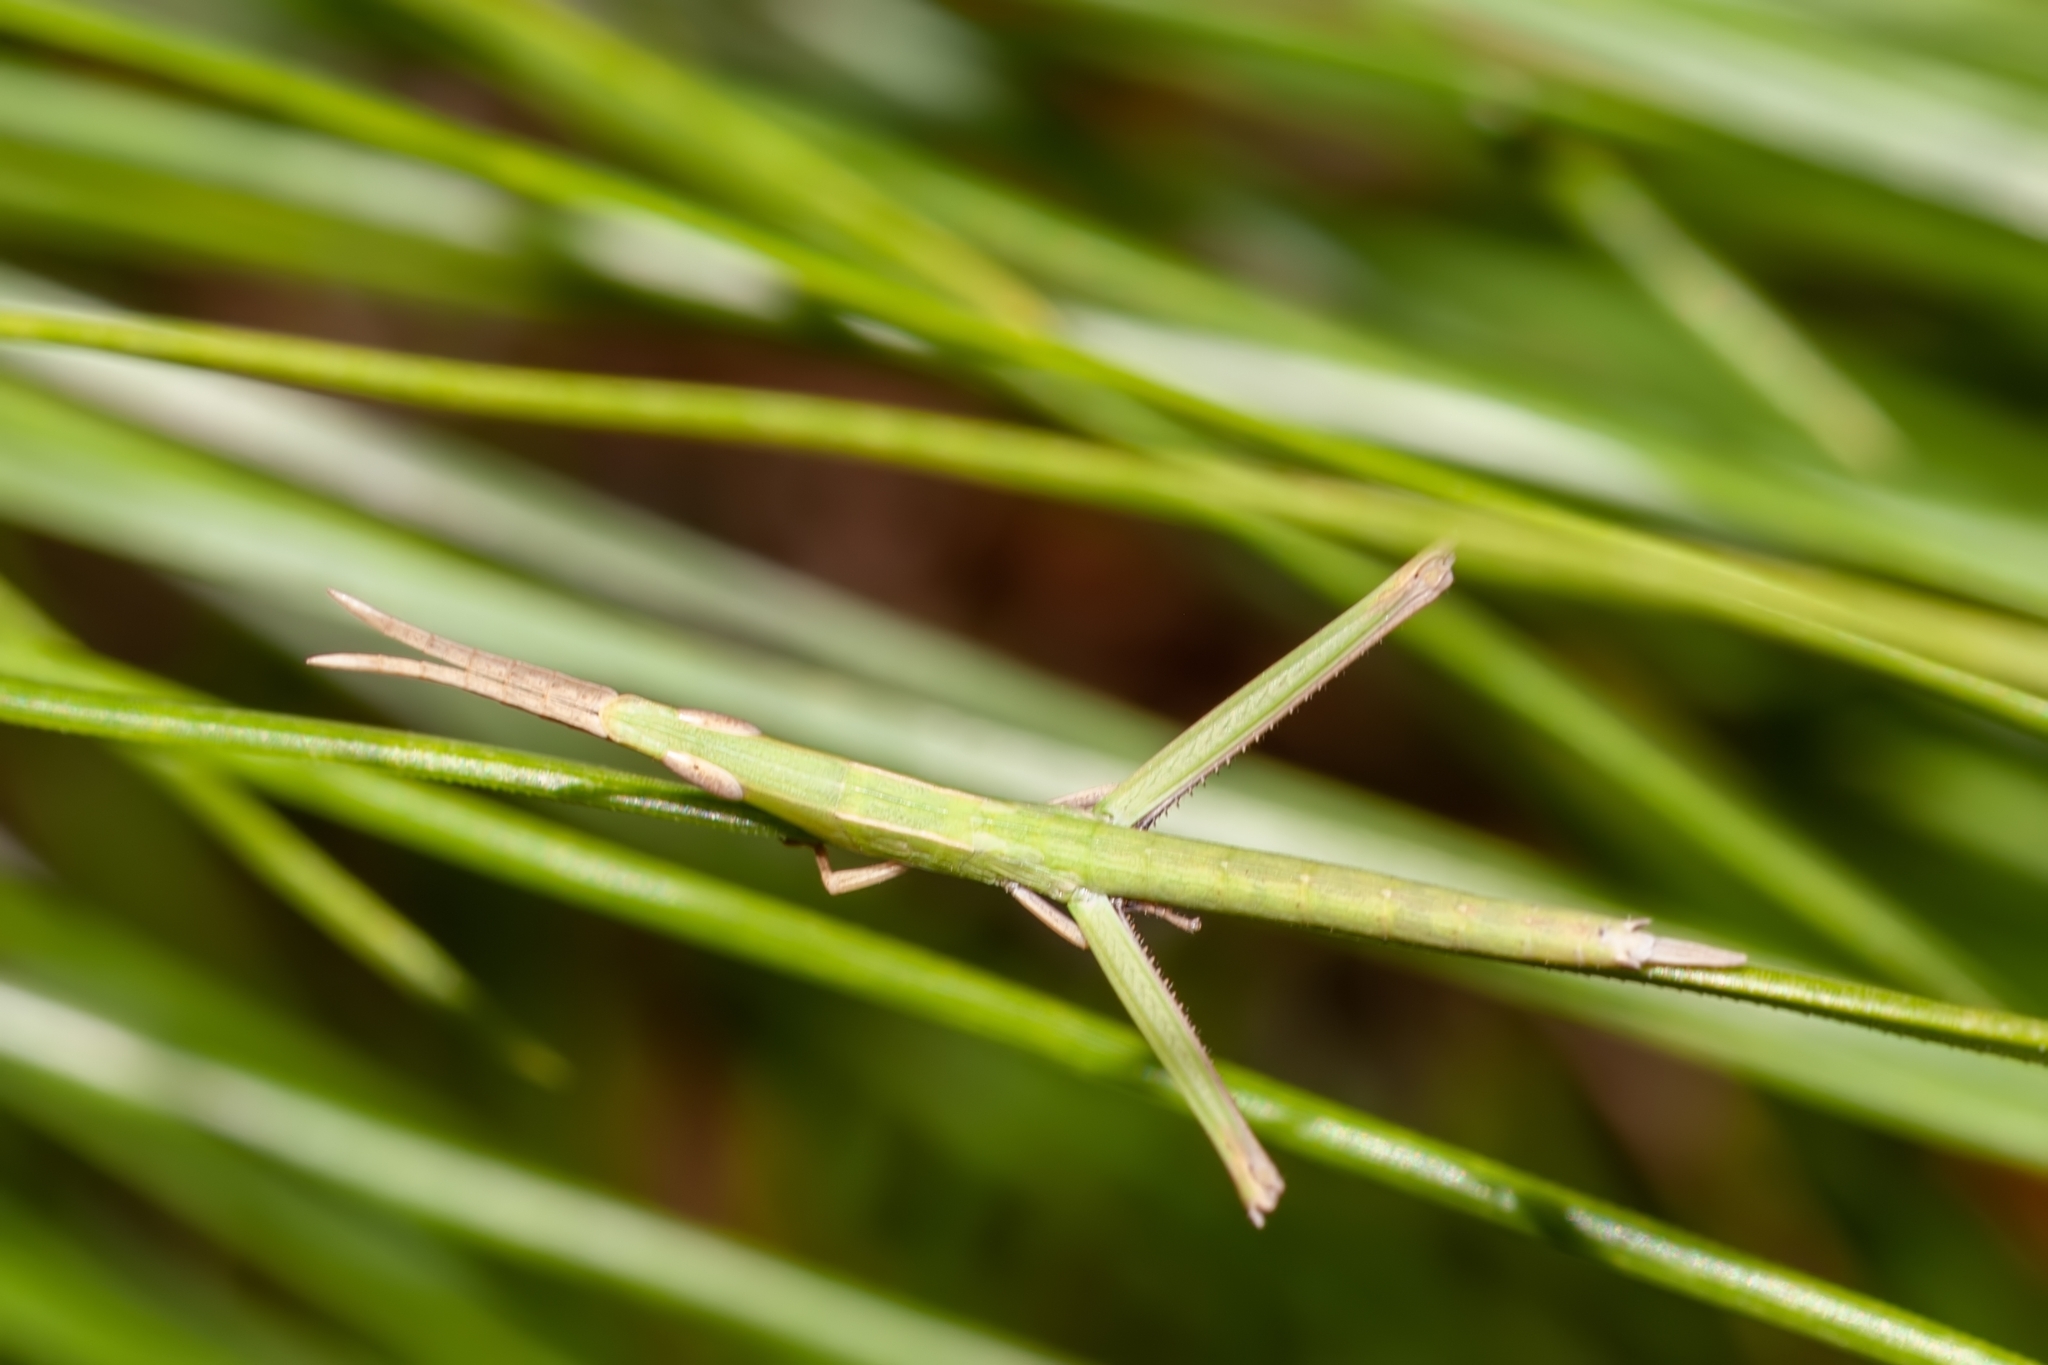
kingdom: Animalia
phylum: Arthropoda
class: Insecta
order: Orthoptera
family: Acrididae
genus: Achurum
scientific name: Achurum carinatum
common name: Long-headed toothpick grasshopper
